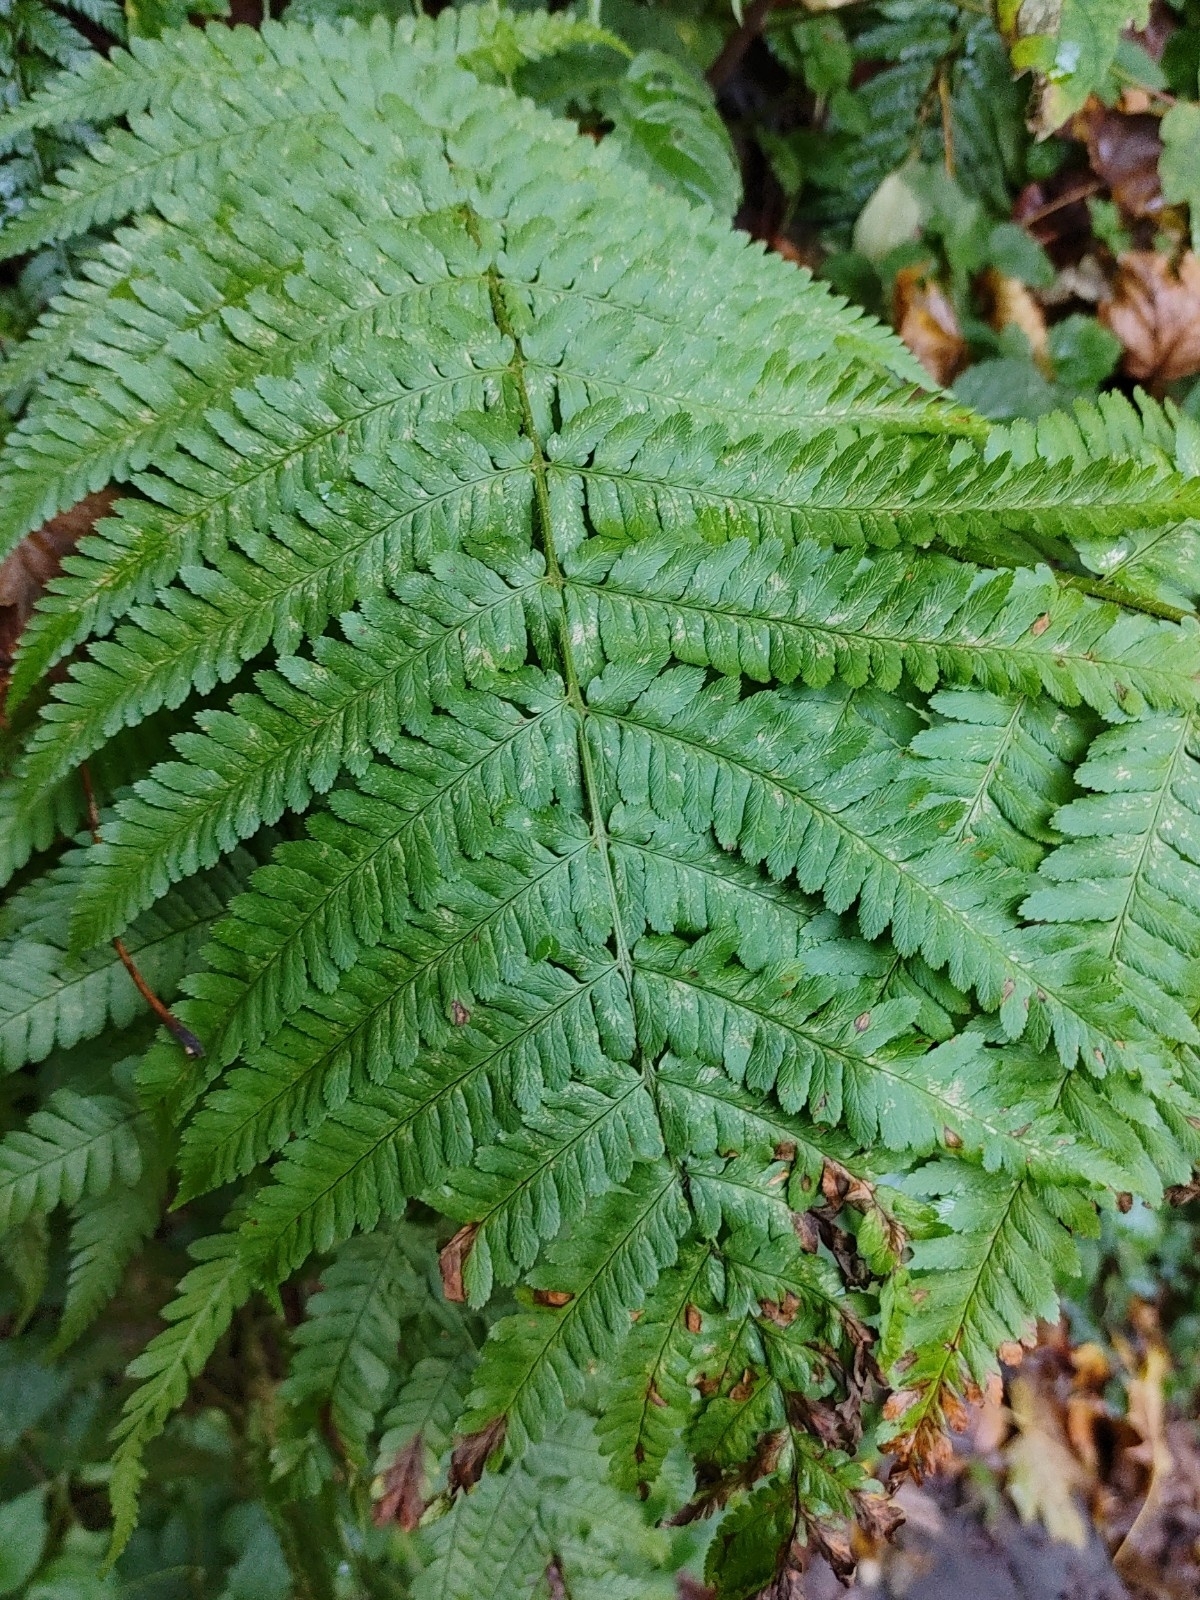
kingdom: Plantae
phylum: Tracheophyta
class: Polypodiopsida
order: Polypodiales
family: Dryopteridaceae
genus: Dryopteris
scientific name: Dryopteris filix-mas
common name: Male fern
